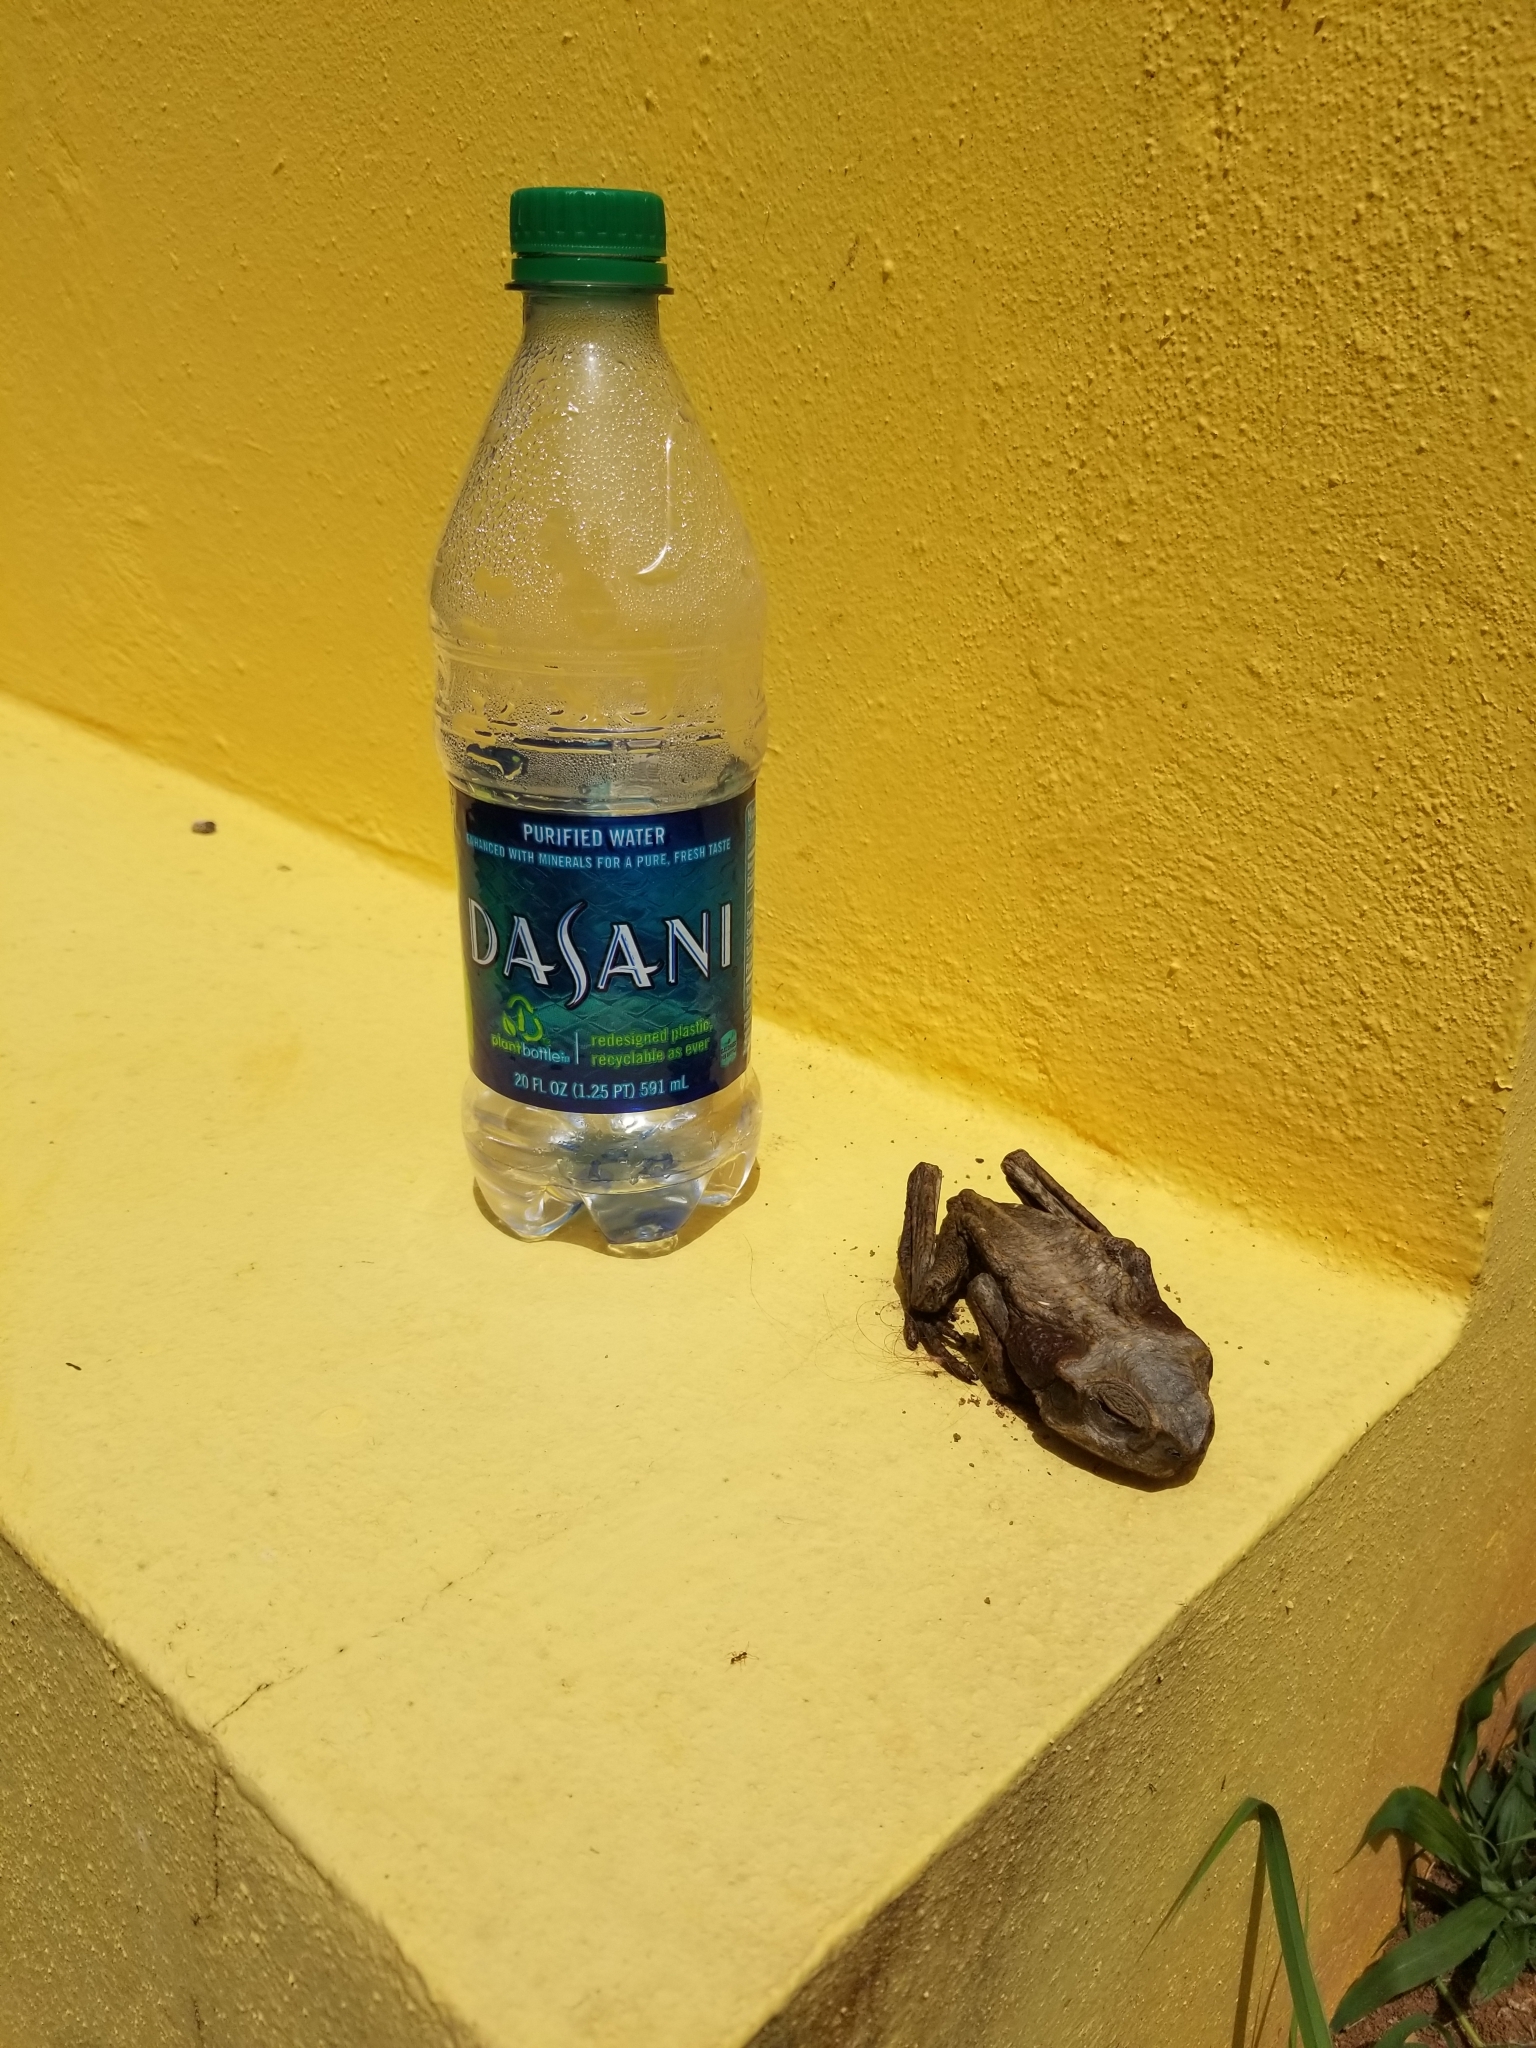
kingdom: Animalia
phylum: Chordata
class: Amphibia
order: Anura
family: Bufonidae
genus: Rhinella
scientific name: Rhinella marina
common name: Cane toad
